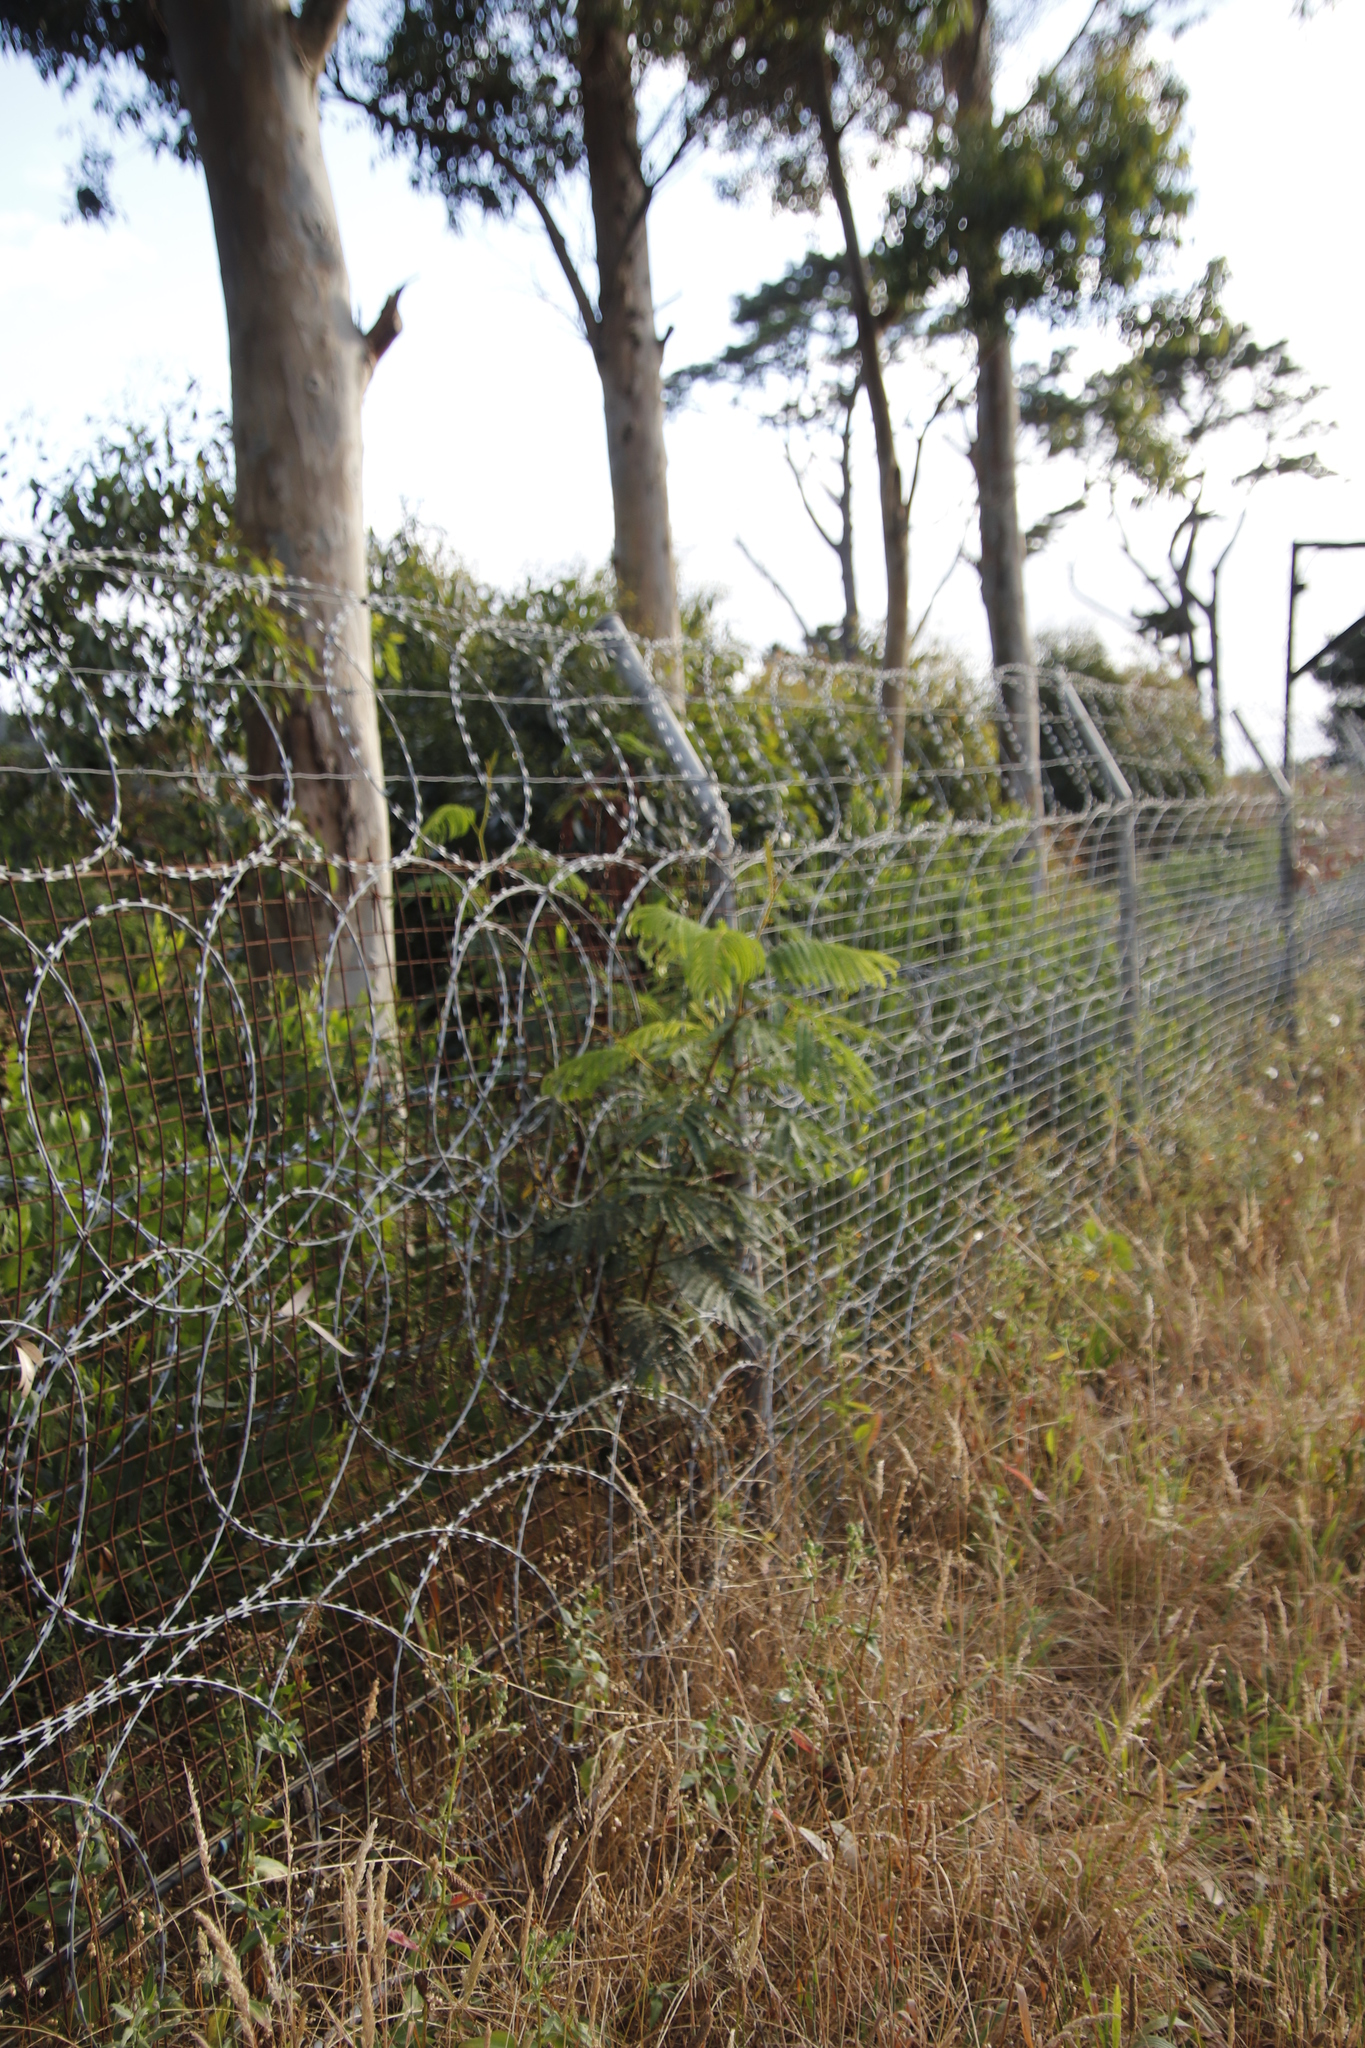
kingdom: Plantae
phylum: Tracheophyta
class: Magnoliopsida
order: Fabales
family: Fabaceae
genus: Paraserianthes
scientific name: Paraserianthes lophantha
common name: Plume albizia
